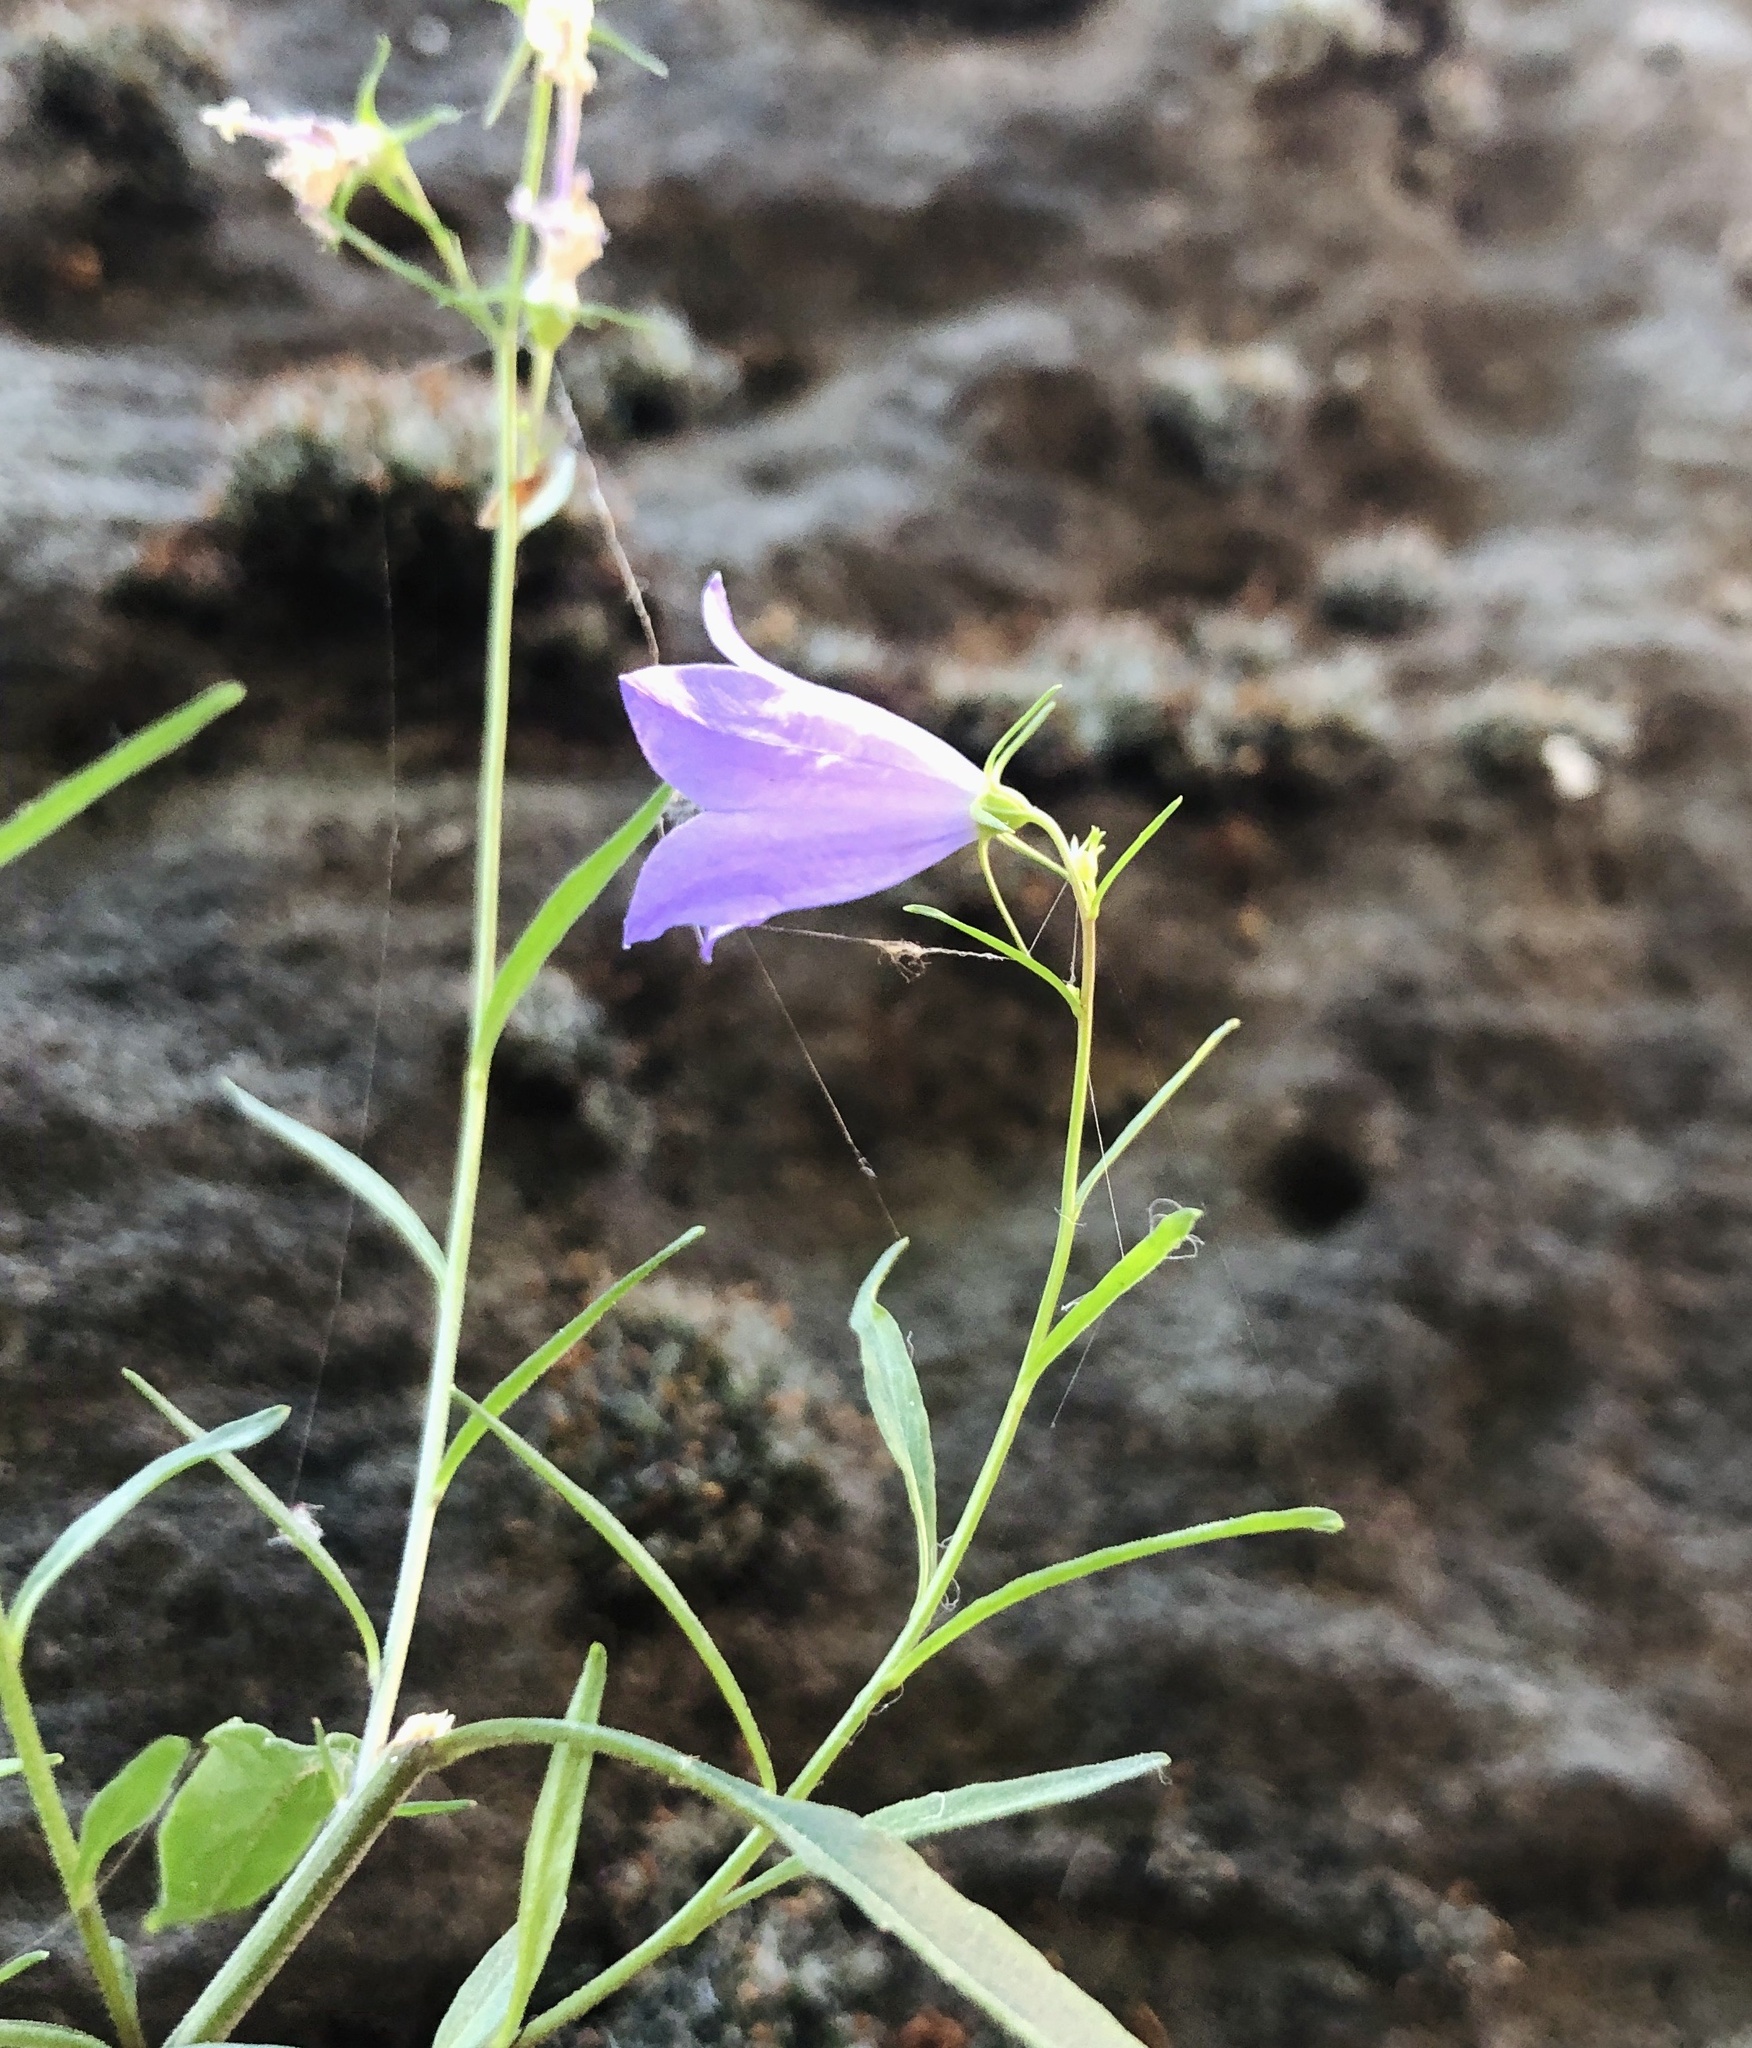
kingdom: Plantae
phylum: Tracheophyta
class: Magnoliopsida
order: Asterales
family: Campanulaceae
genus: Campanula
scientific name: Campanula rotundifolia
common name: Harebell
